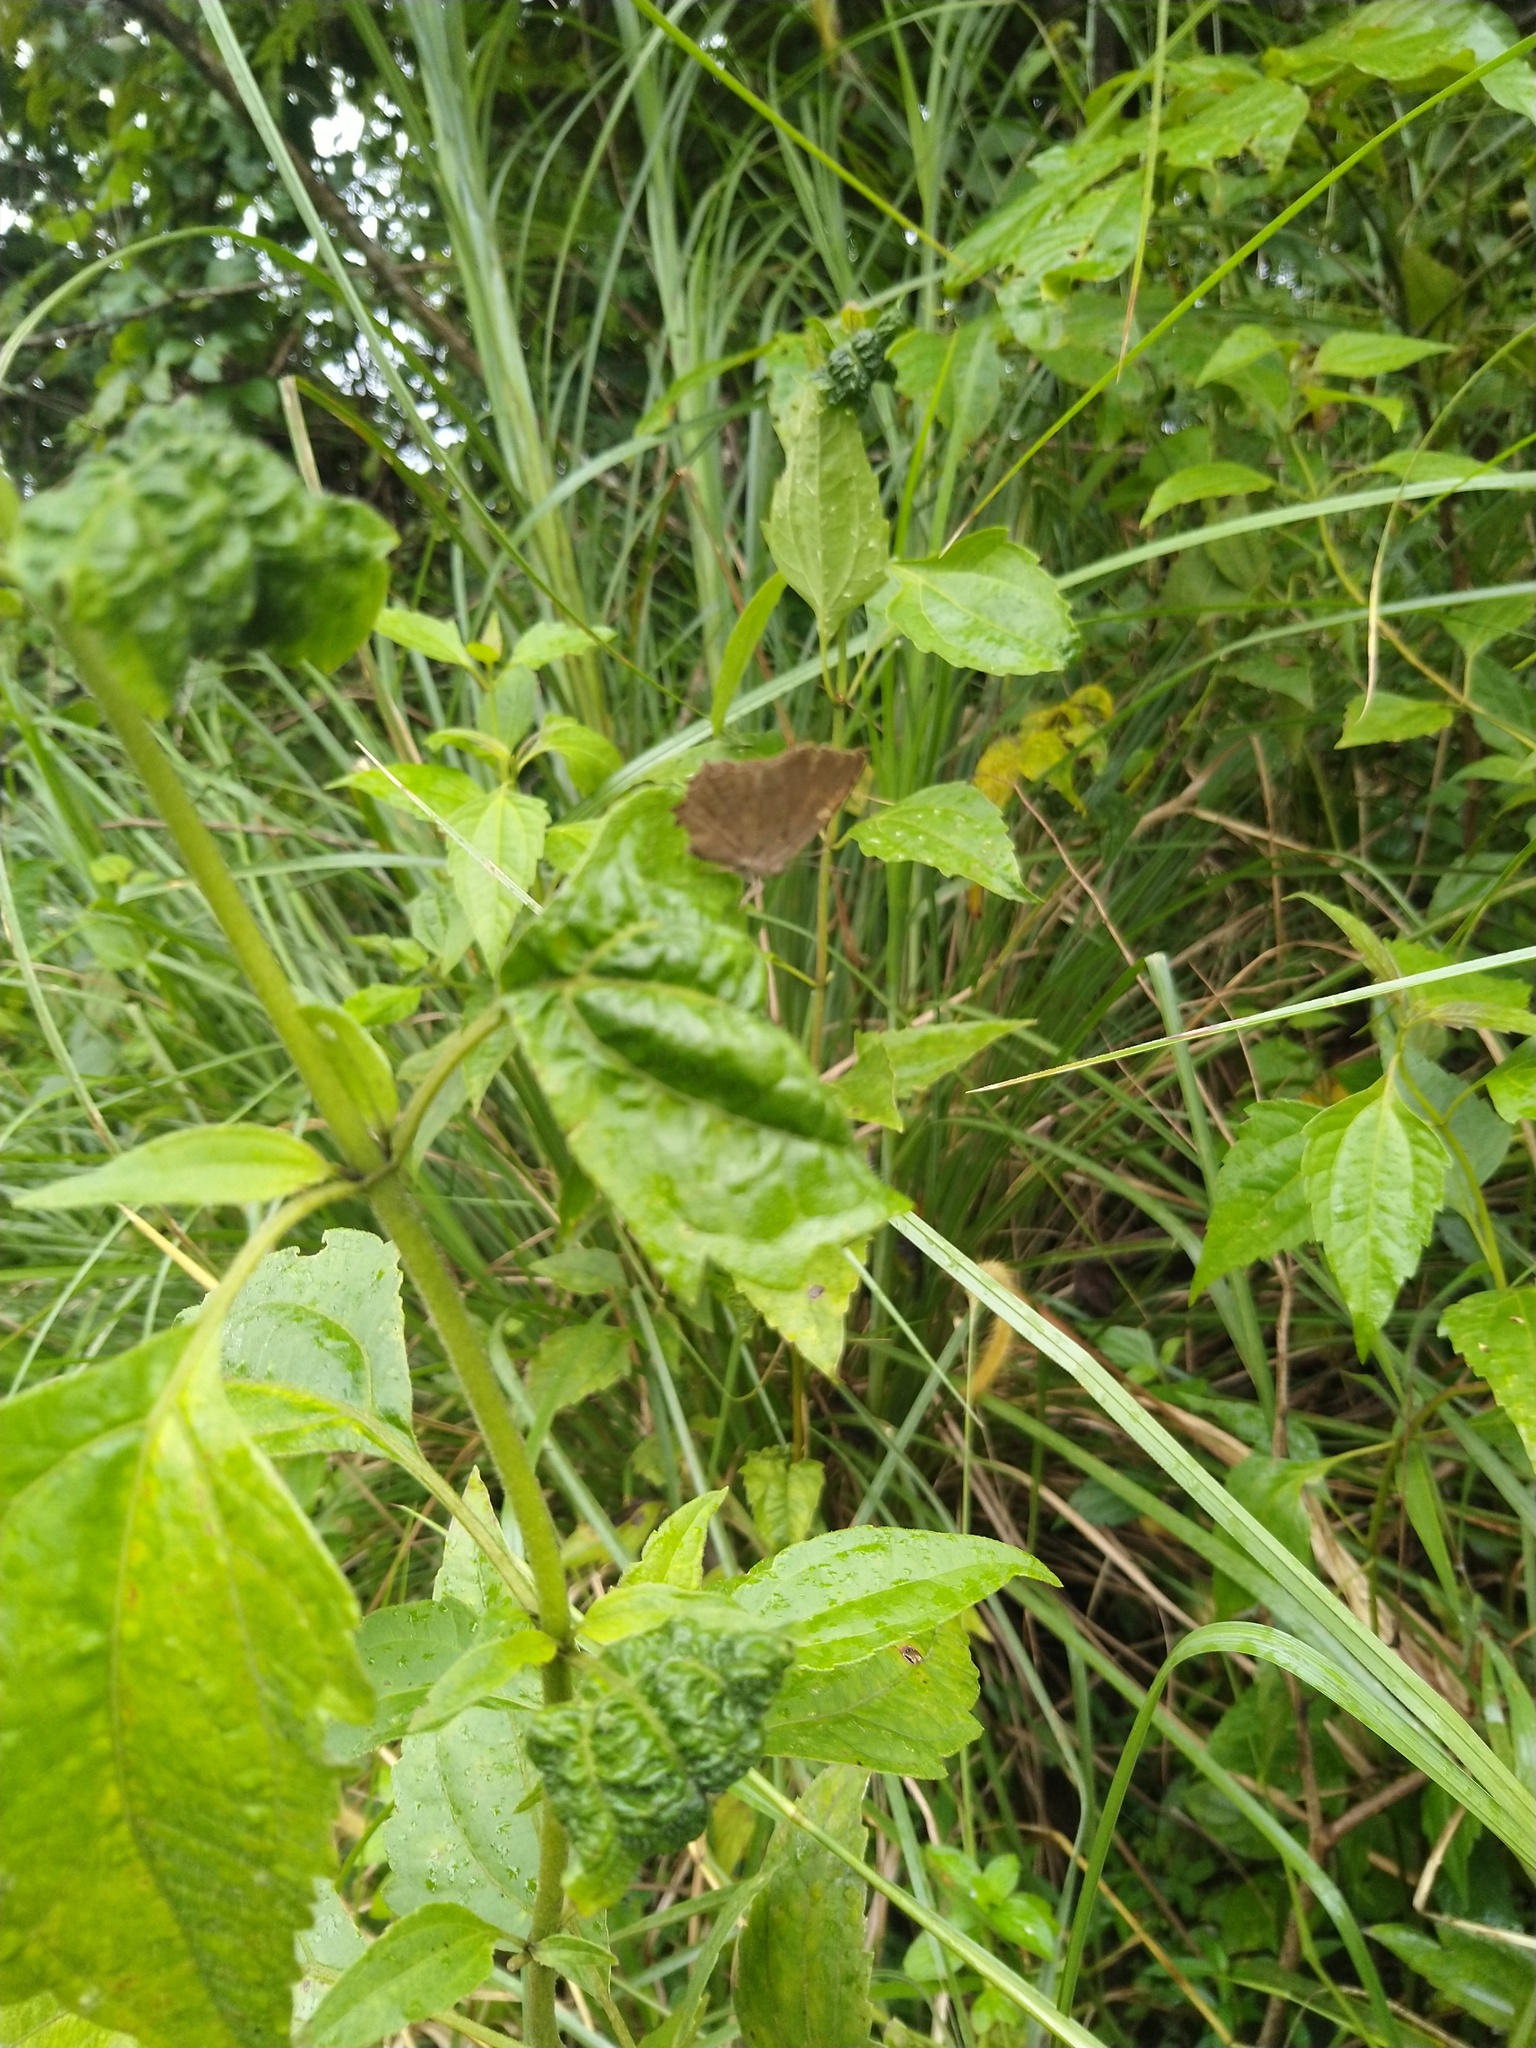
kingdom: Animalia
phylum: Arthropoda
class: Insecta
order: Lepidoptera
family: Lycaenidae
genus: Surendra
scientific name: Surendra quercetorum
